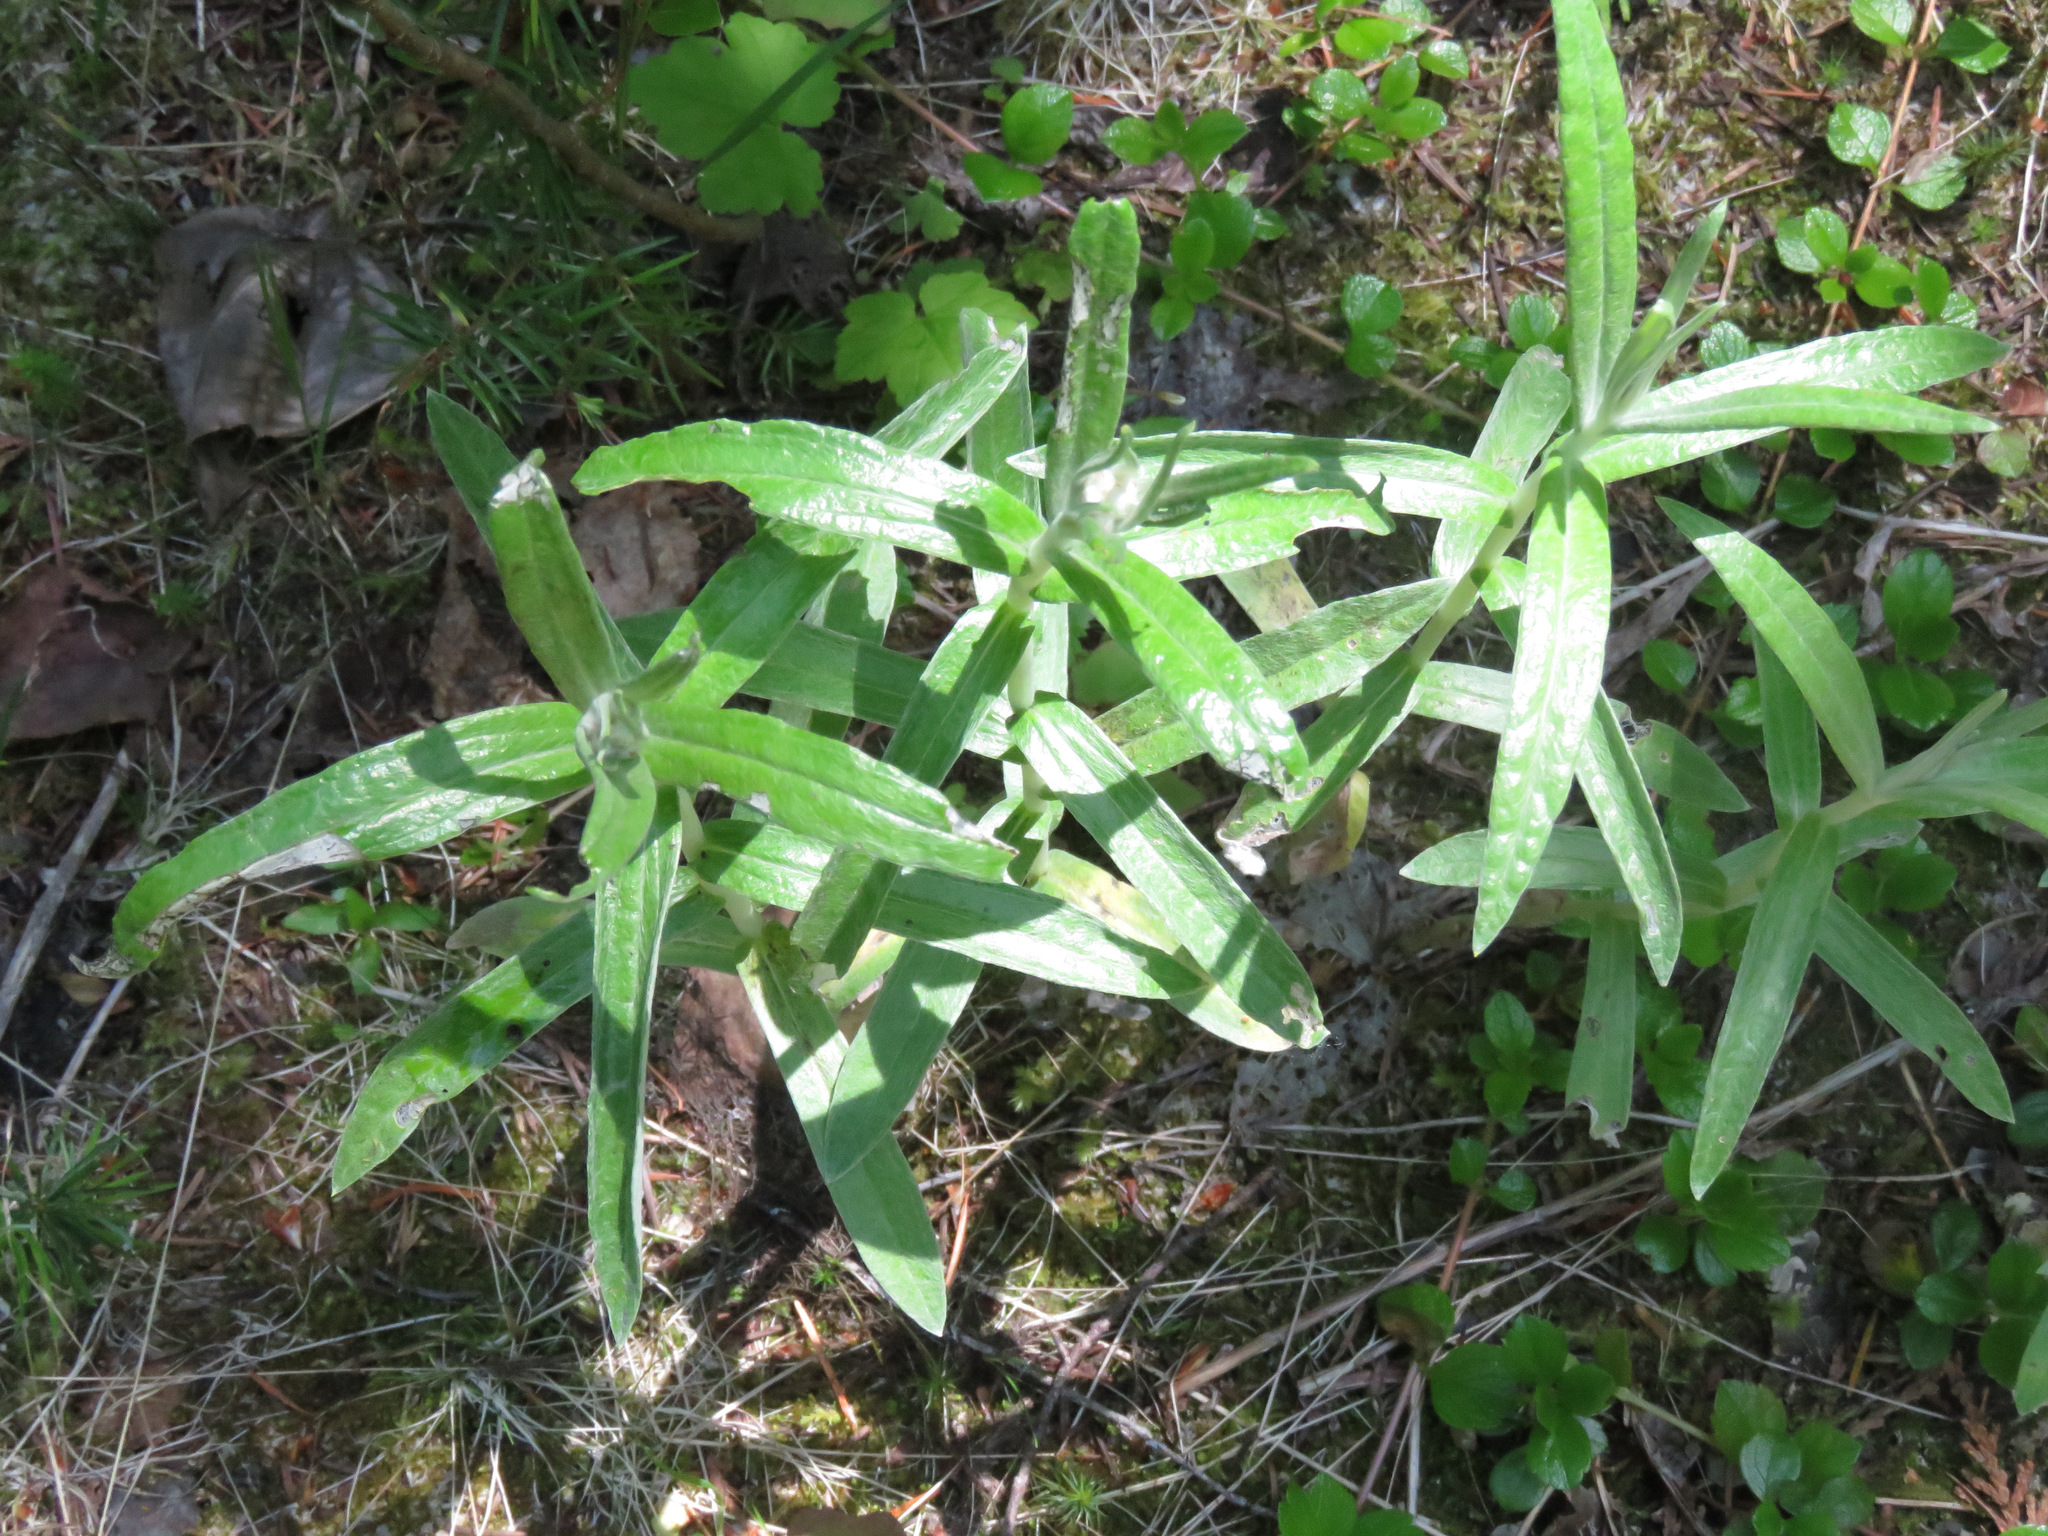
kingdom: Plantae
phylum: Tracheophyta
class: Magnoliopsida
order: Asterales
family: Asteraceae
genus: Anaphalis
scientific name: Anaphalis margaritacea
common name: Pearly everlasting
